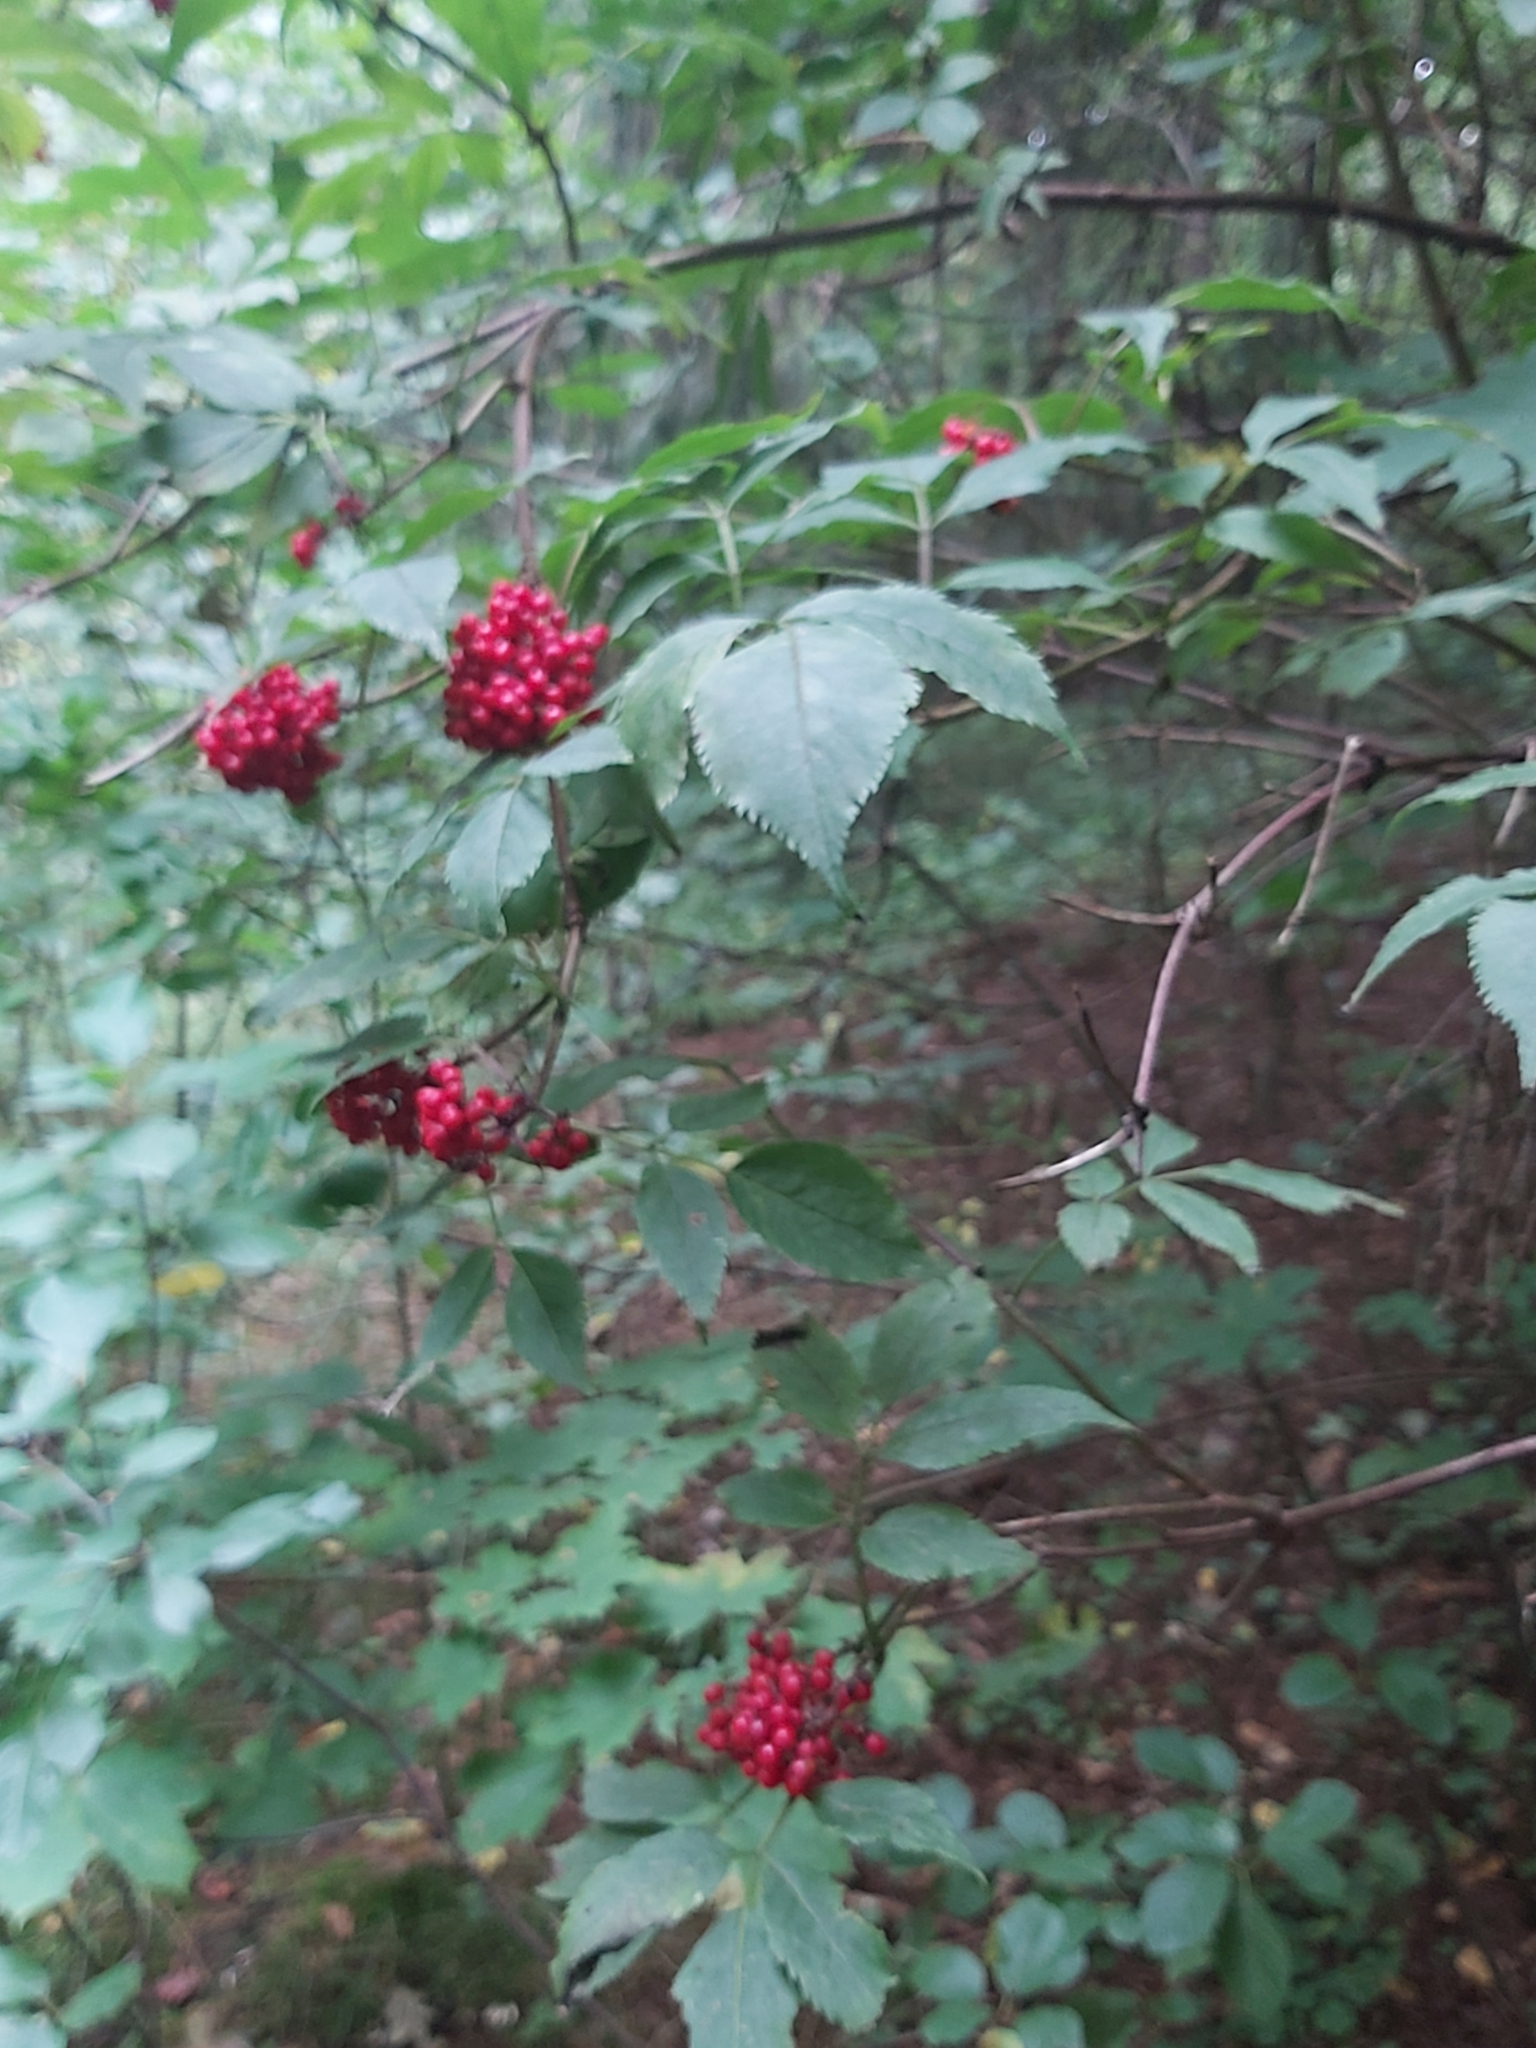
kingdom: Plantae
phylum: Tracheophyta
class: Magnoliopsida
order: Dipsacales
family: Viburnaceae
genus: Sambucus
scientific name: Sambucus racemosa
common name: Red-berried elder
